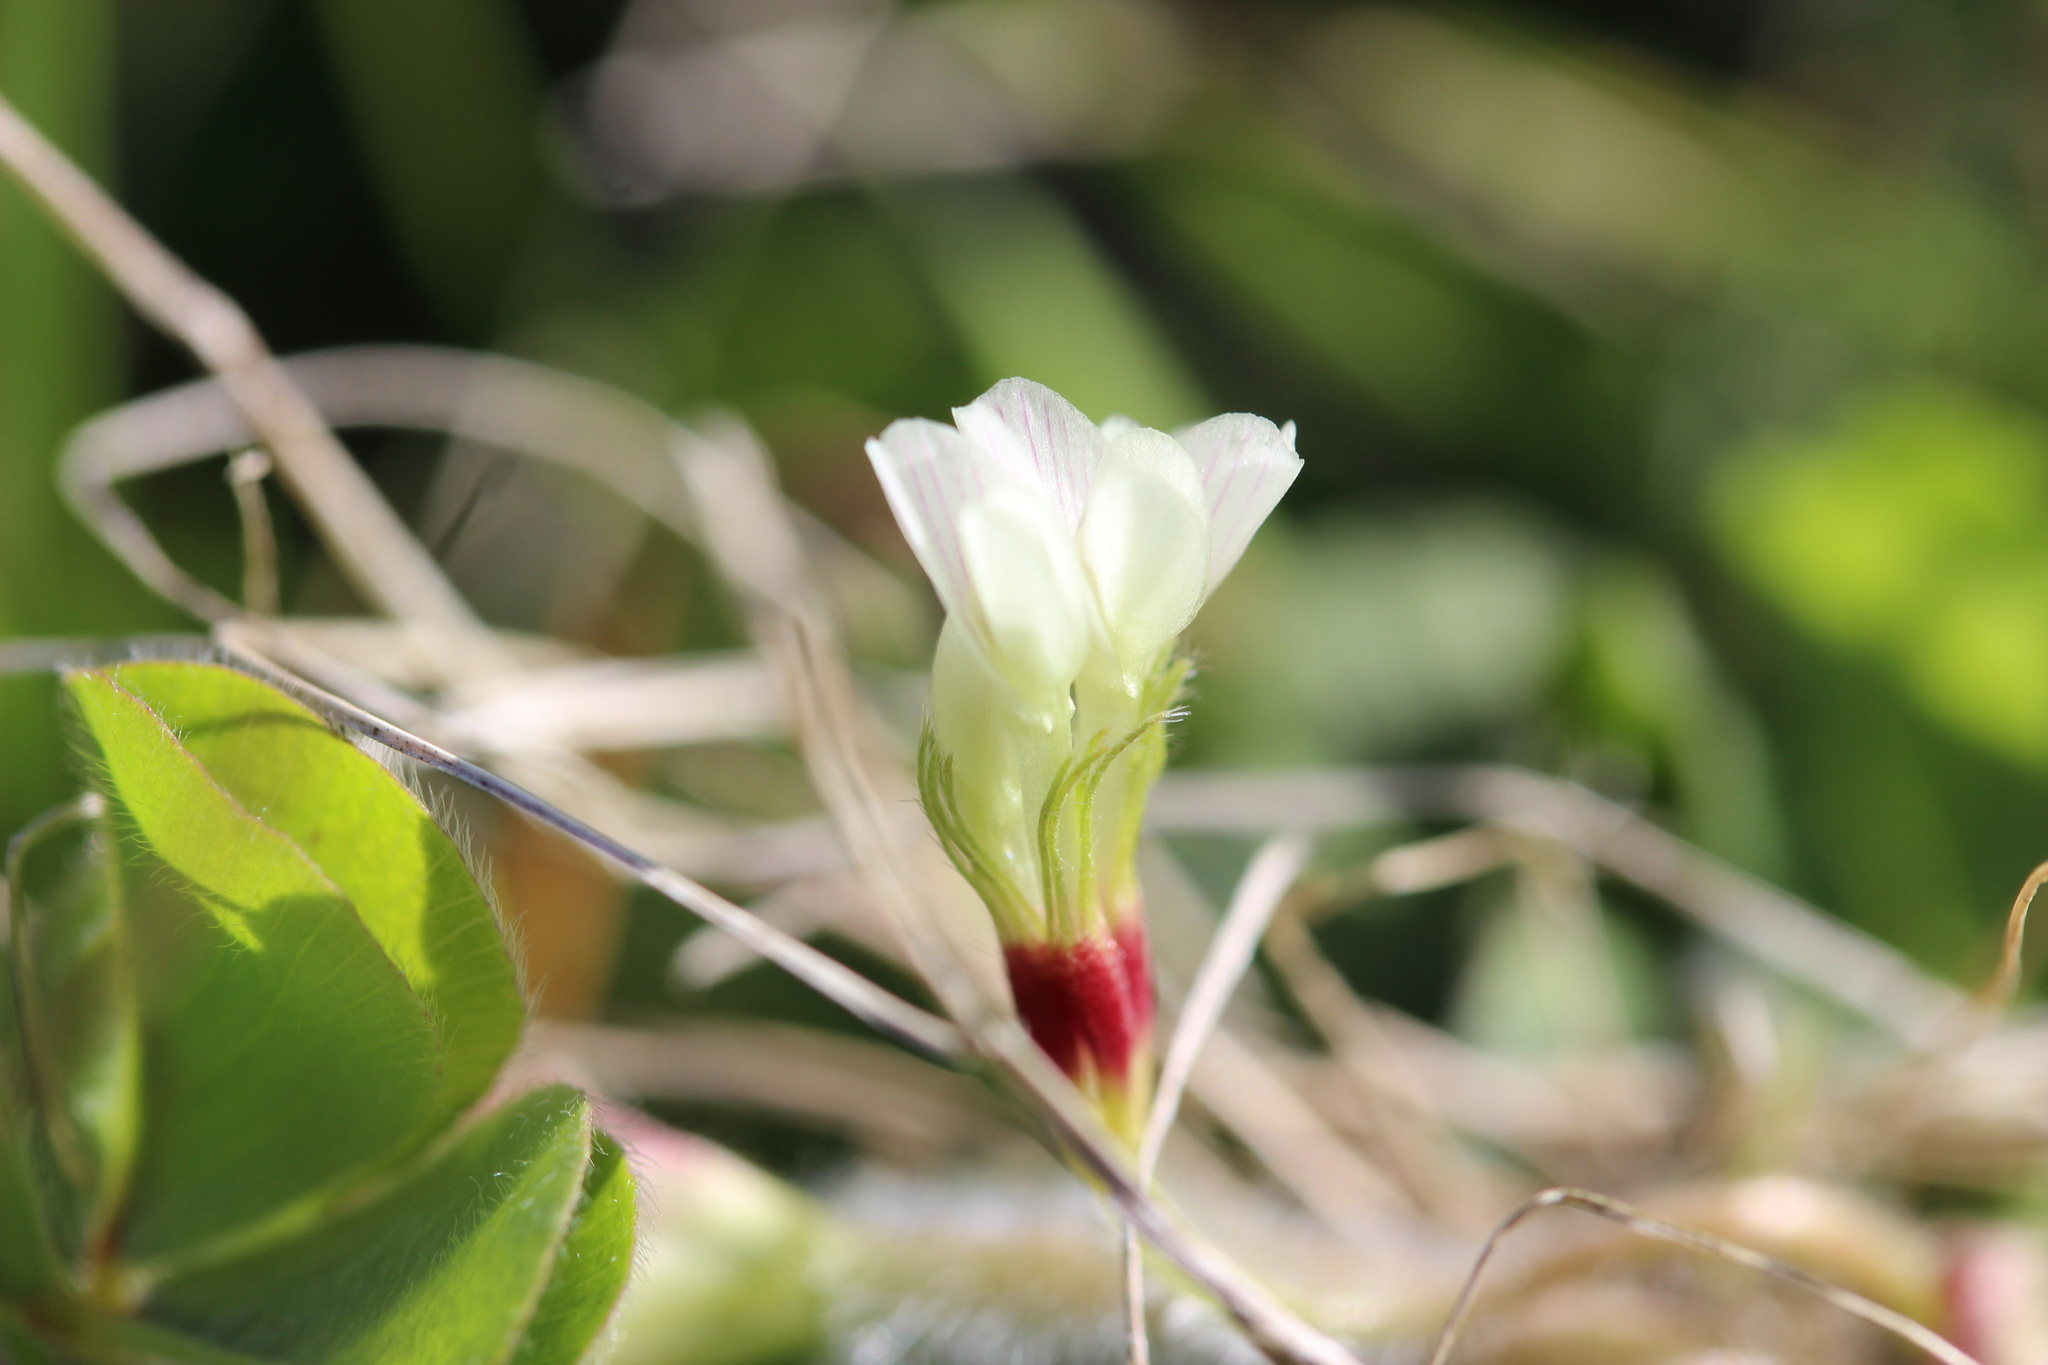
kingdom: Plantae
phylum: Tracheophyta
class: Magnoliopsida
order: Fabales
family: Fabaceae
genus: Trifolium
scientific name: Trifolium subterraneum
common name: Subterranean clover
